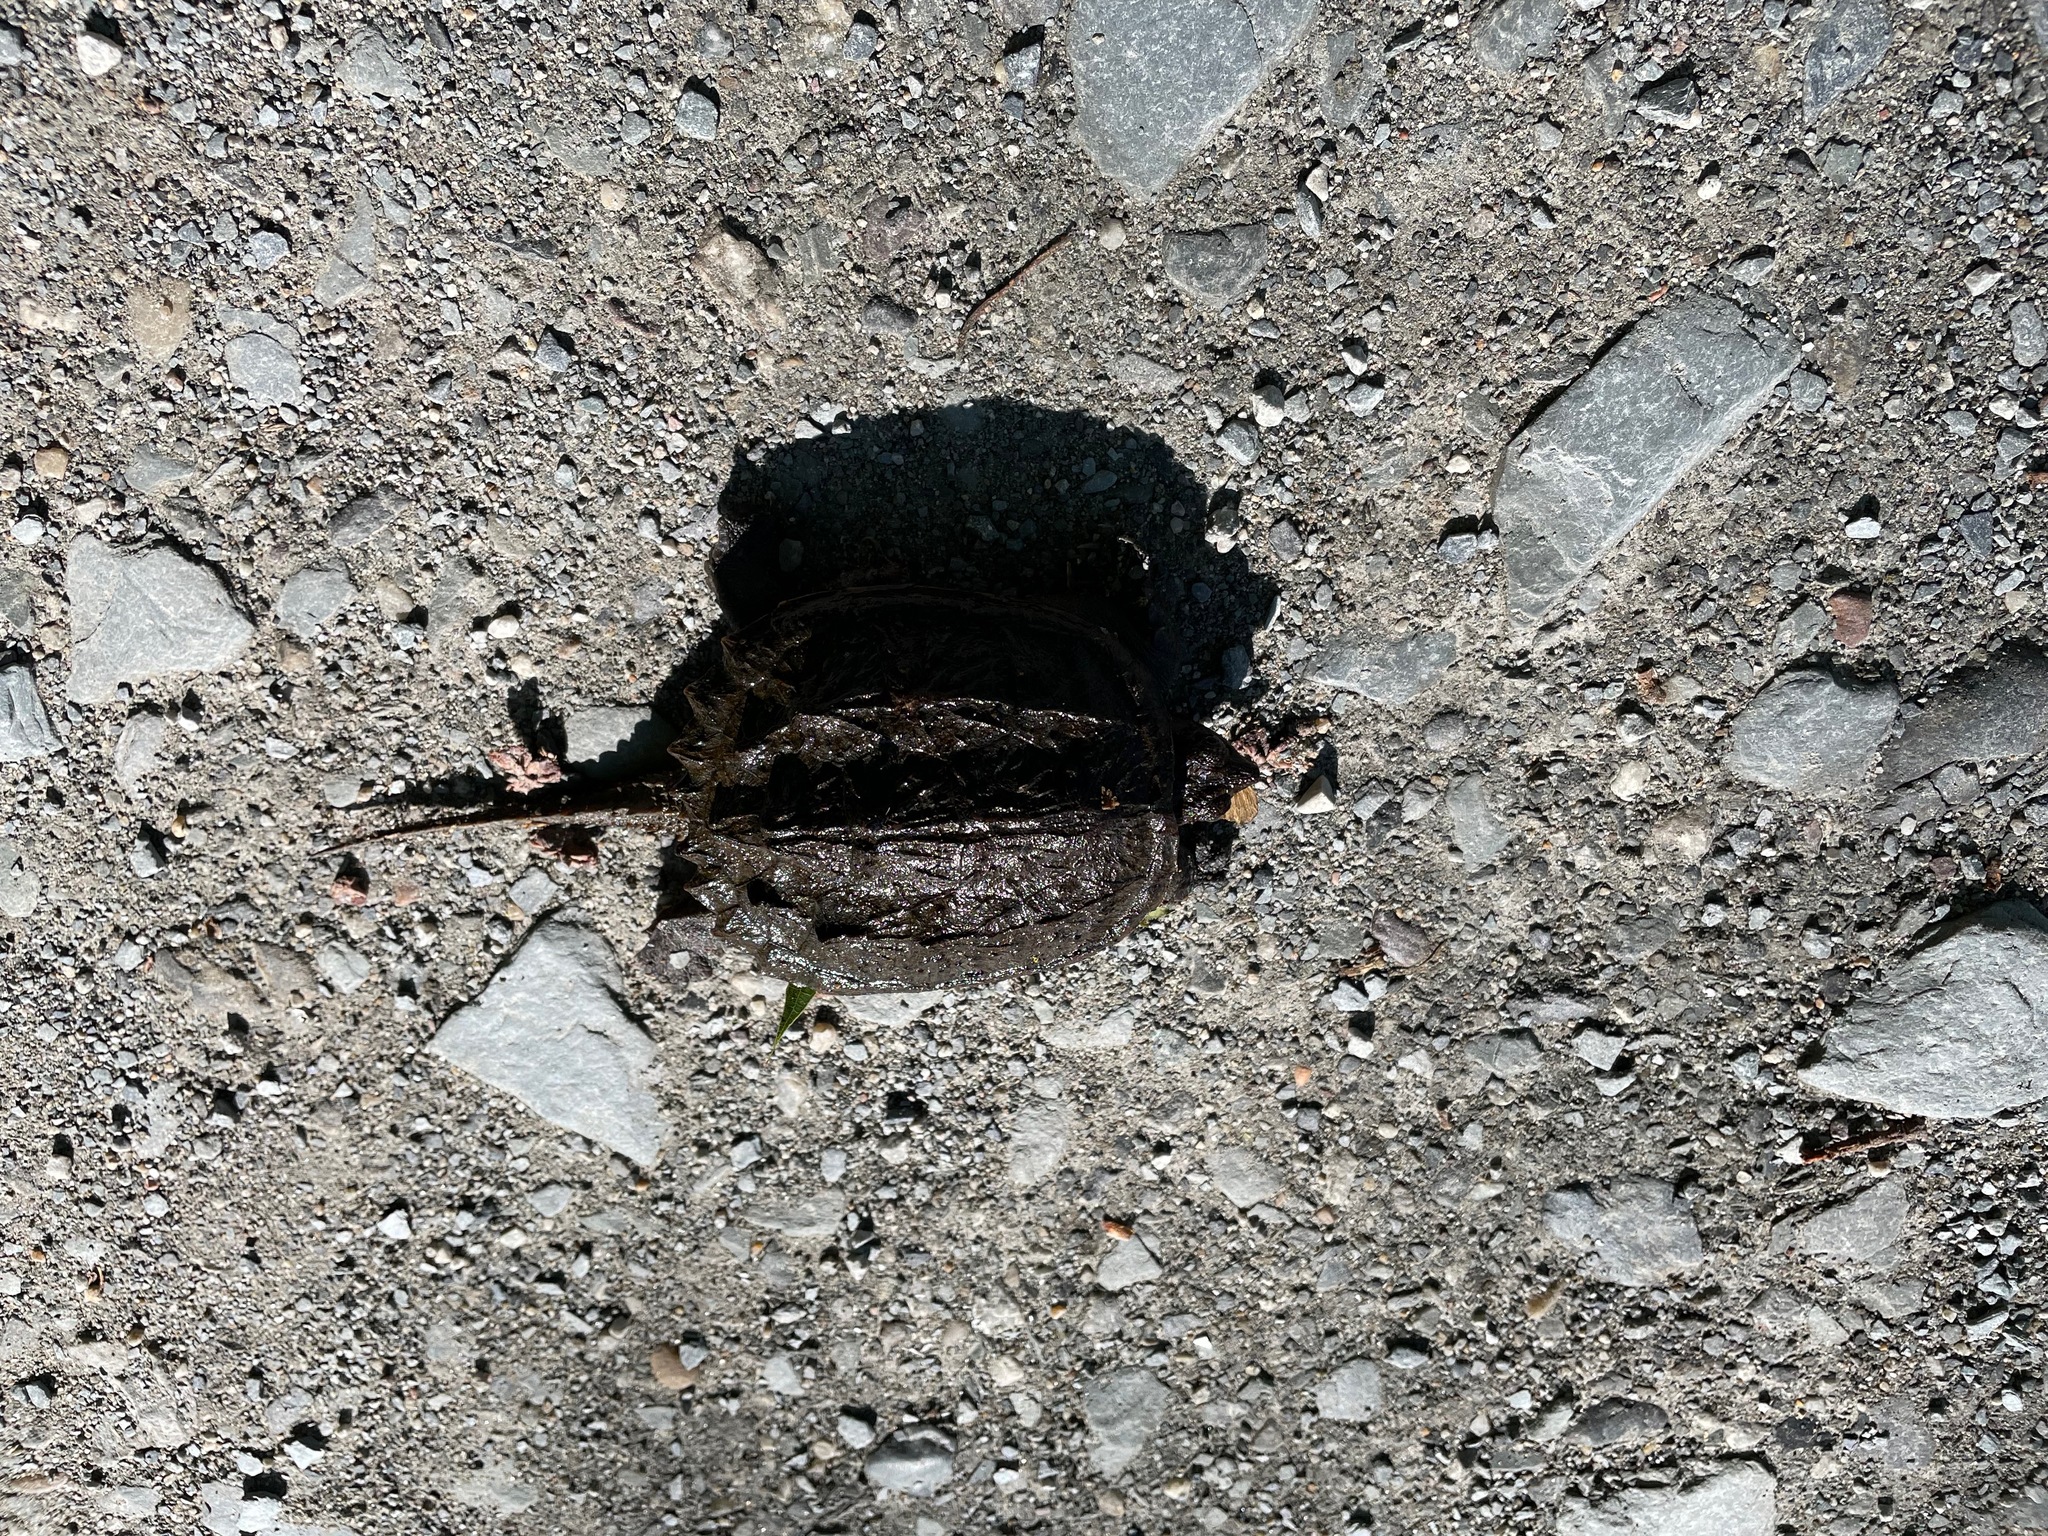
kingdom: Animalia
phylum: Chordata
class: Testudines
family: Chelydridae
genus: Chelydra
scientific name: Chelydra serpentina
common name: Common snapping turtle
